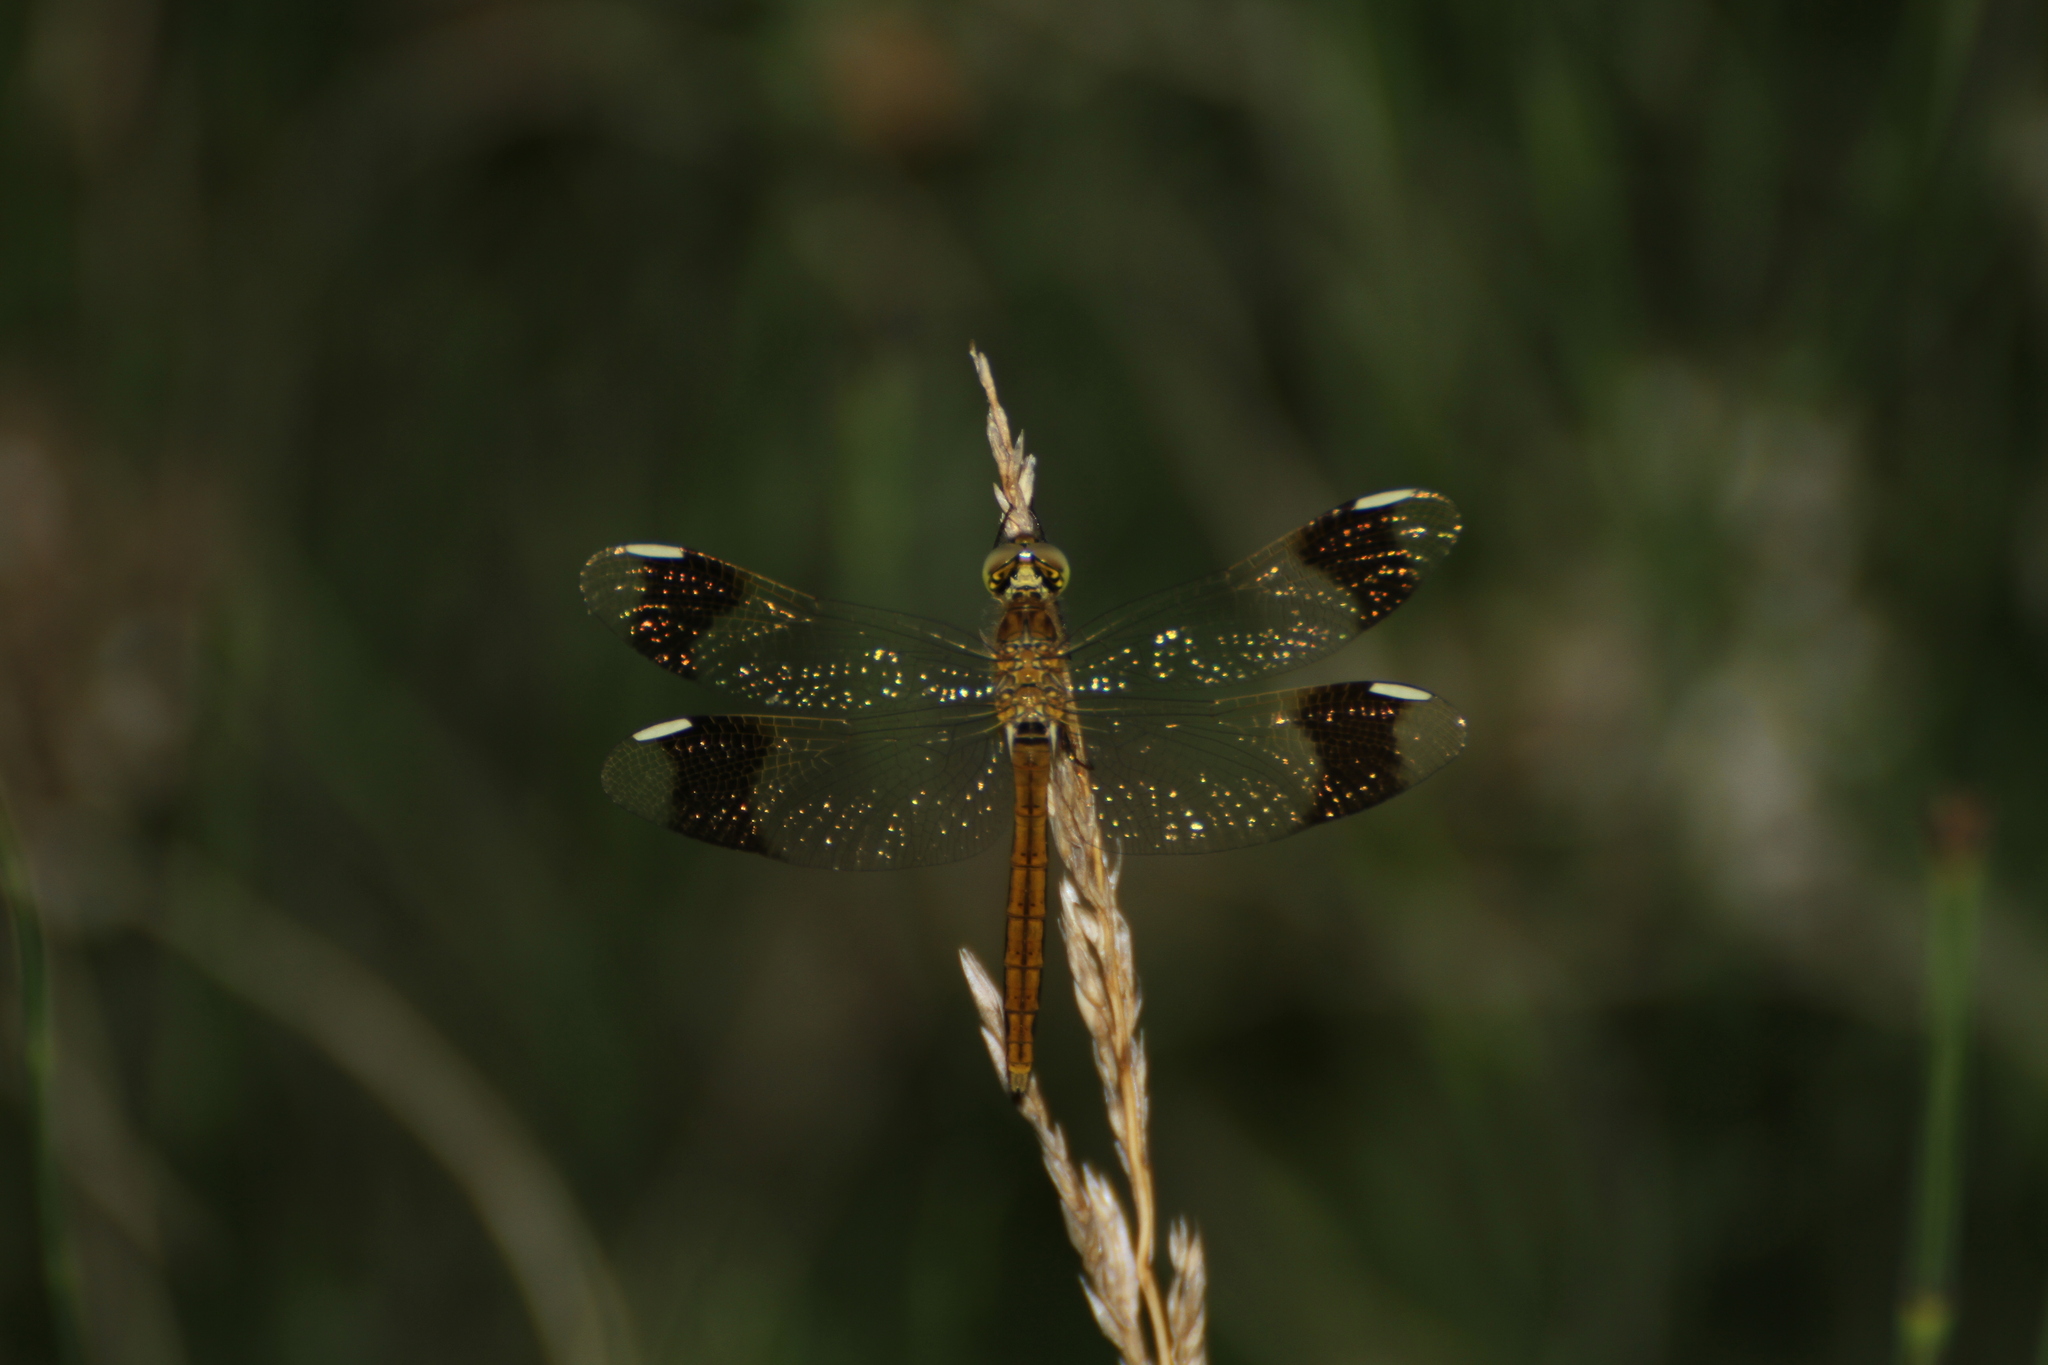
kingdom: Animalia
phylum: Arthropoda
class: Insecta
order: Odonata
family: Libellulidae
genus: Sympetrum
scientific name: Sympetrum pedemontanum
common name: Banded darter
